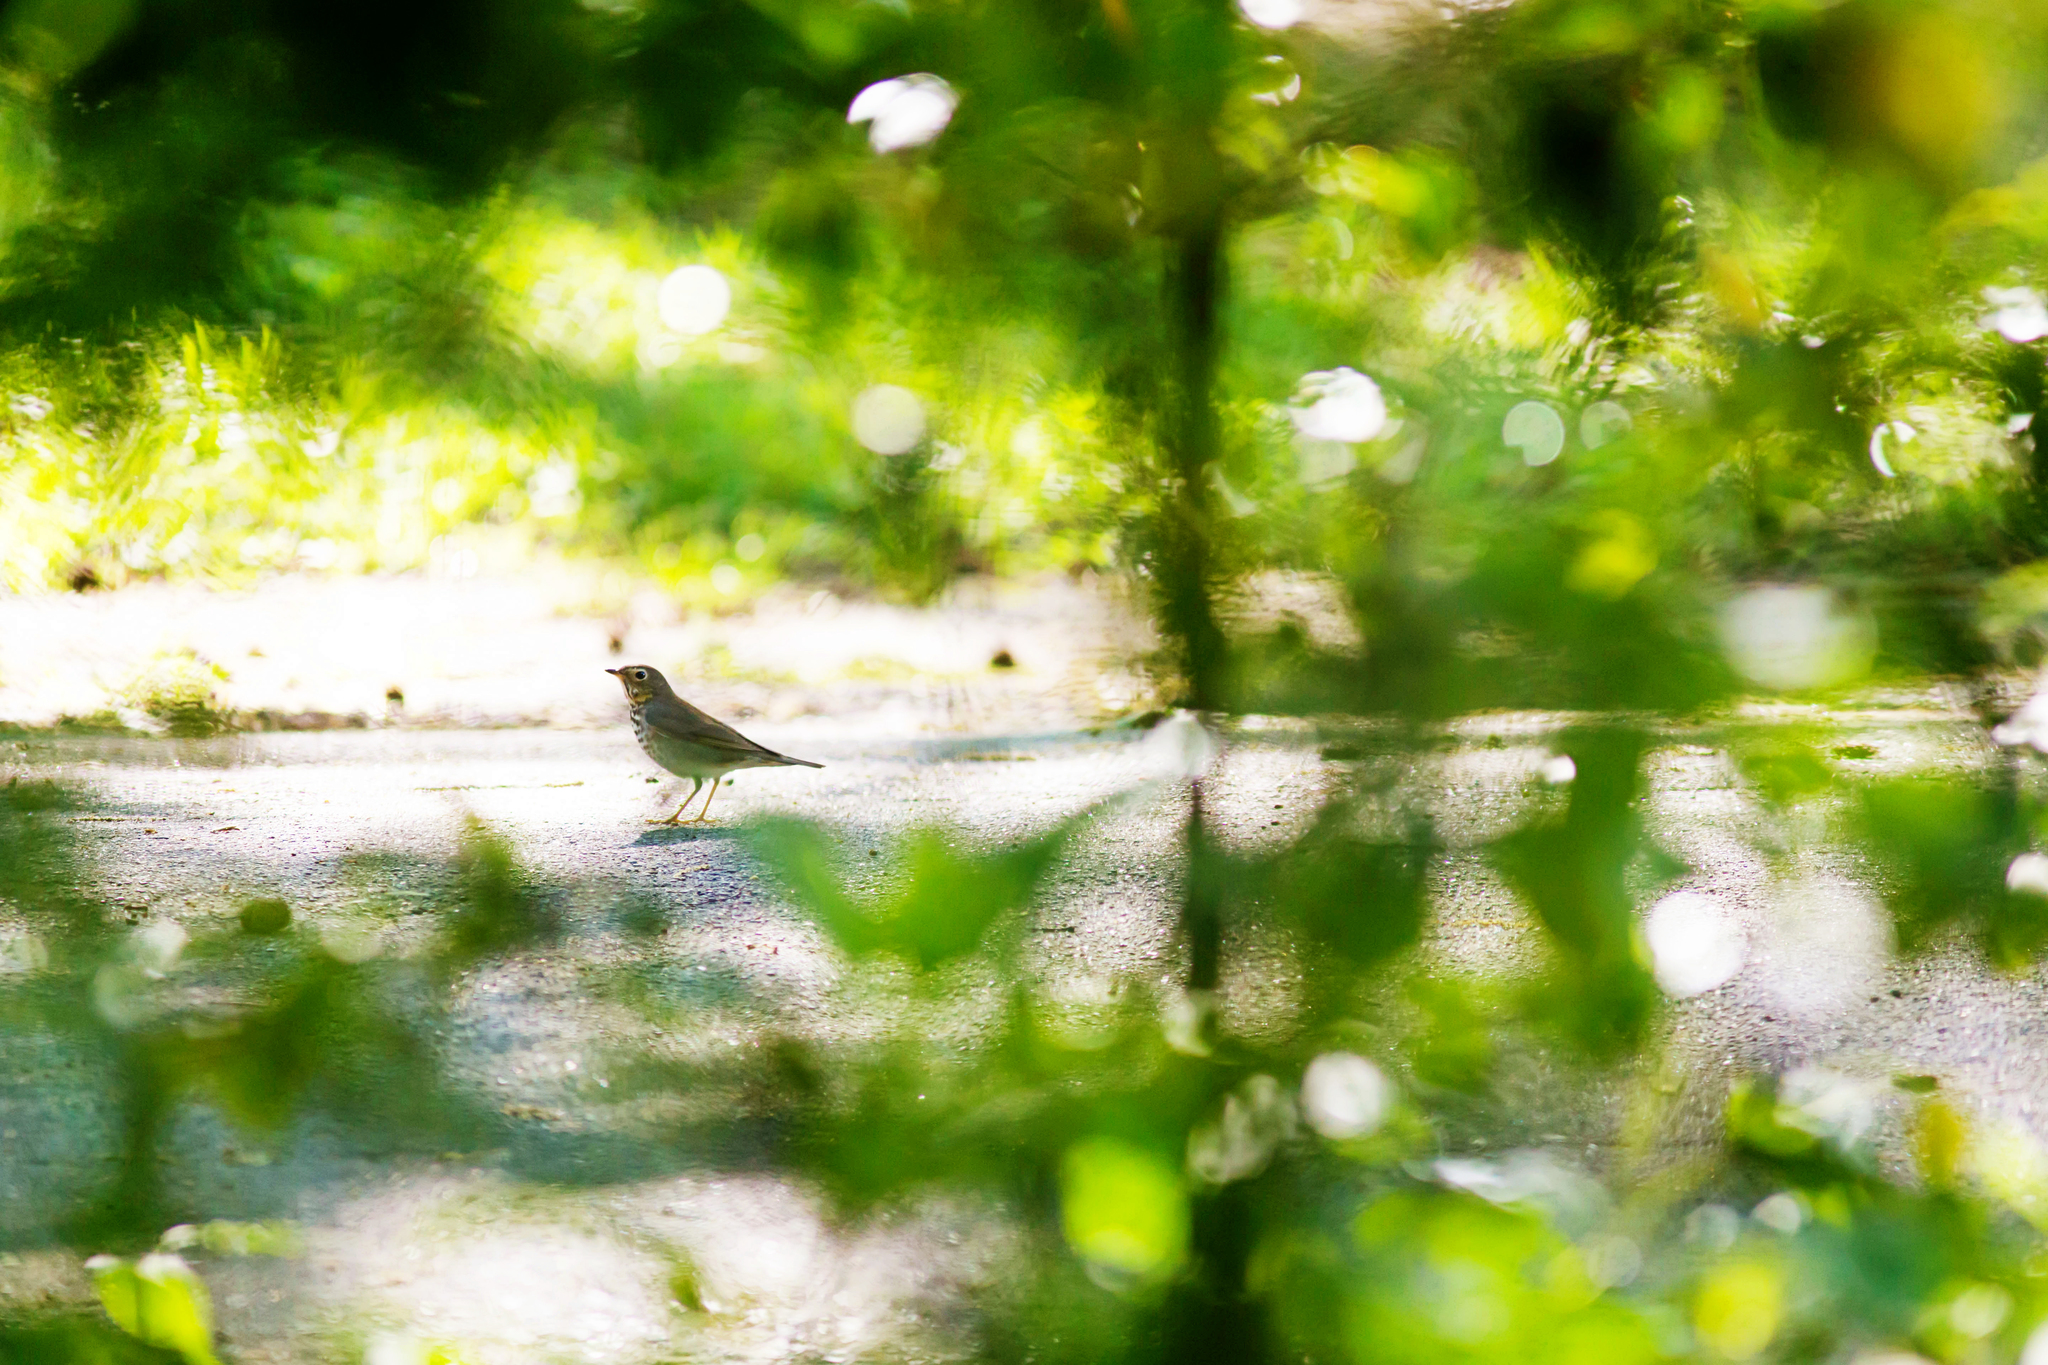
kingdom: Animalia
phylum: Chordata
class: Aves
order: Passeriformes
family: Turdidae
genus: Catharus
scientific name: Catharus ustulatus
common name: Swainson's thrush
